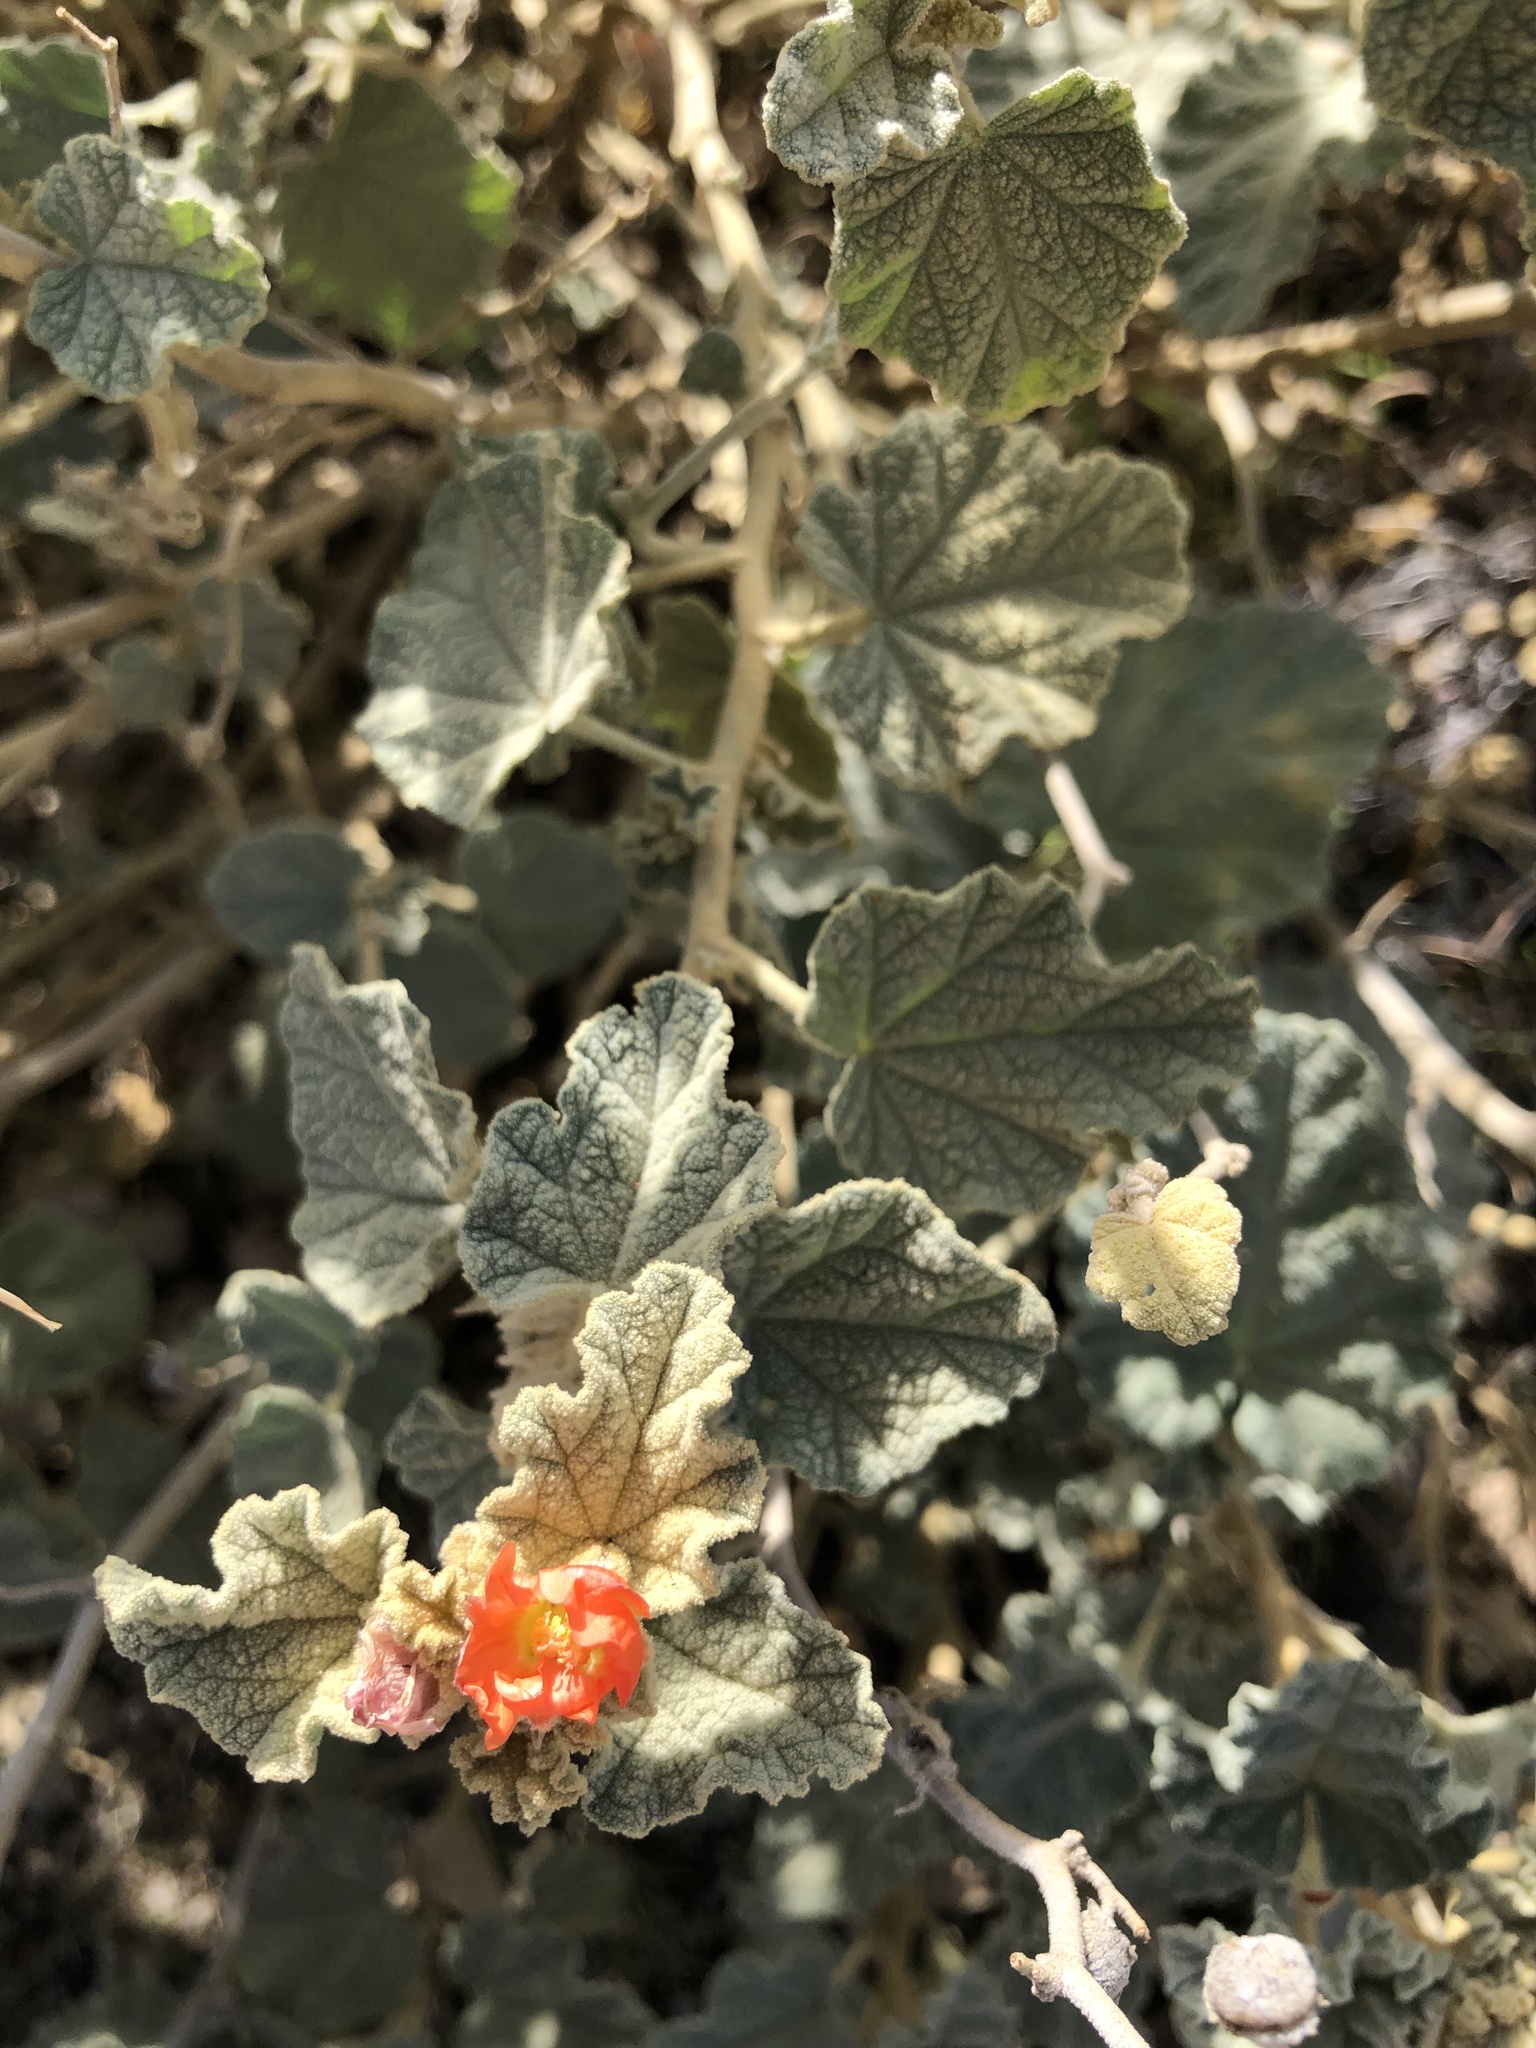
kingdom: Plantae
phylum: Tracheophyta
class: Magnoliopsida
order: Malvales
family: Malvaceae
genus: Sphaeralcea
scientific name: Sphaeralcea ambigua
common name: Apricot globe-mallow
